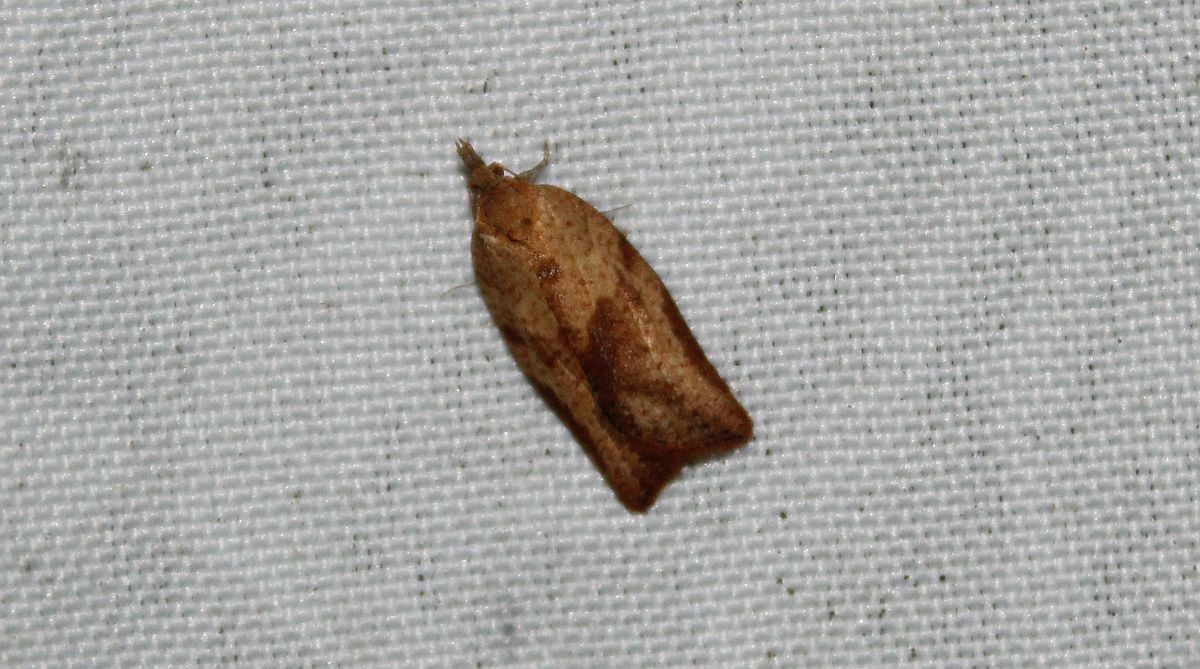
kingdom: Animalia
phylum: Arthropoda
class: Insecta
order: Lepidoptera
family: Tortricidae
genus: Epiphyas
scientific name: Epiphyas postvittana
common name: Light brown apple moth
